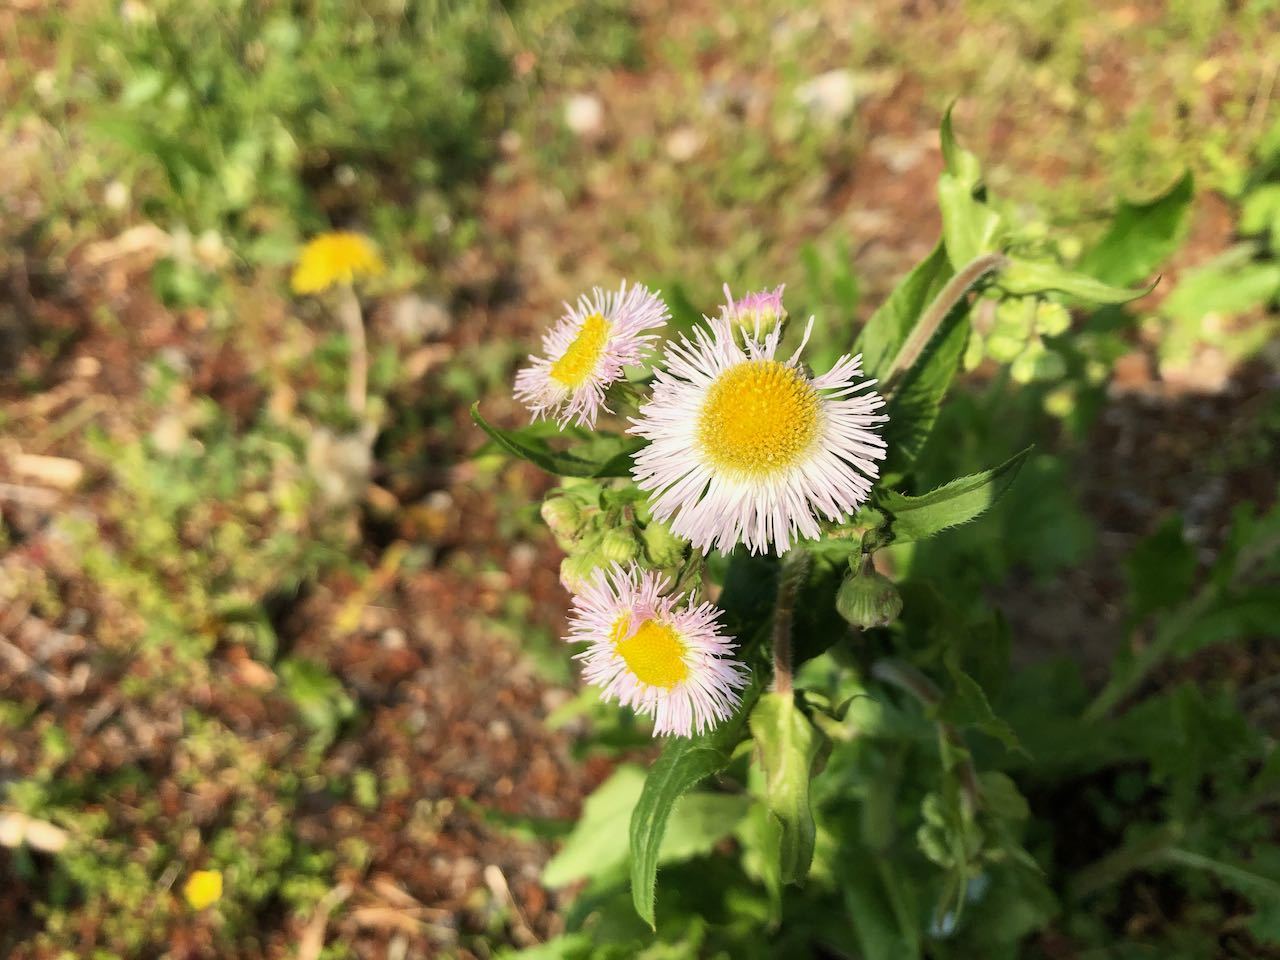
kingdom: Plantae
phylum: Tracheophyta
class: Magnoliopsida
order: Asterales
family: Asteraceae
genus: Erigeron
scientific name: Erigeron philadelphicus
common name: Robin's-plantain
